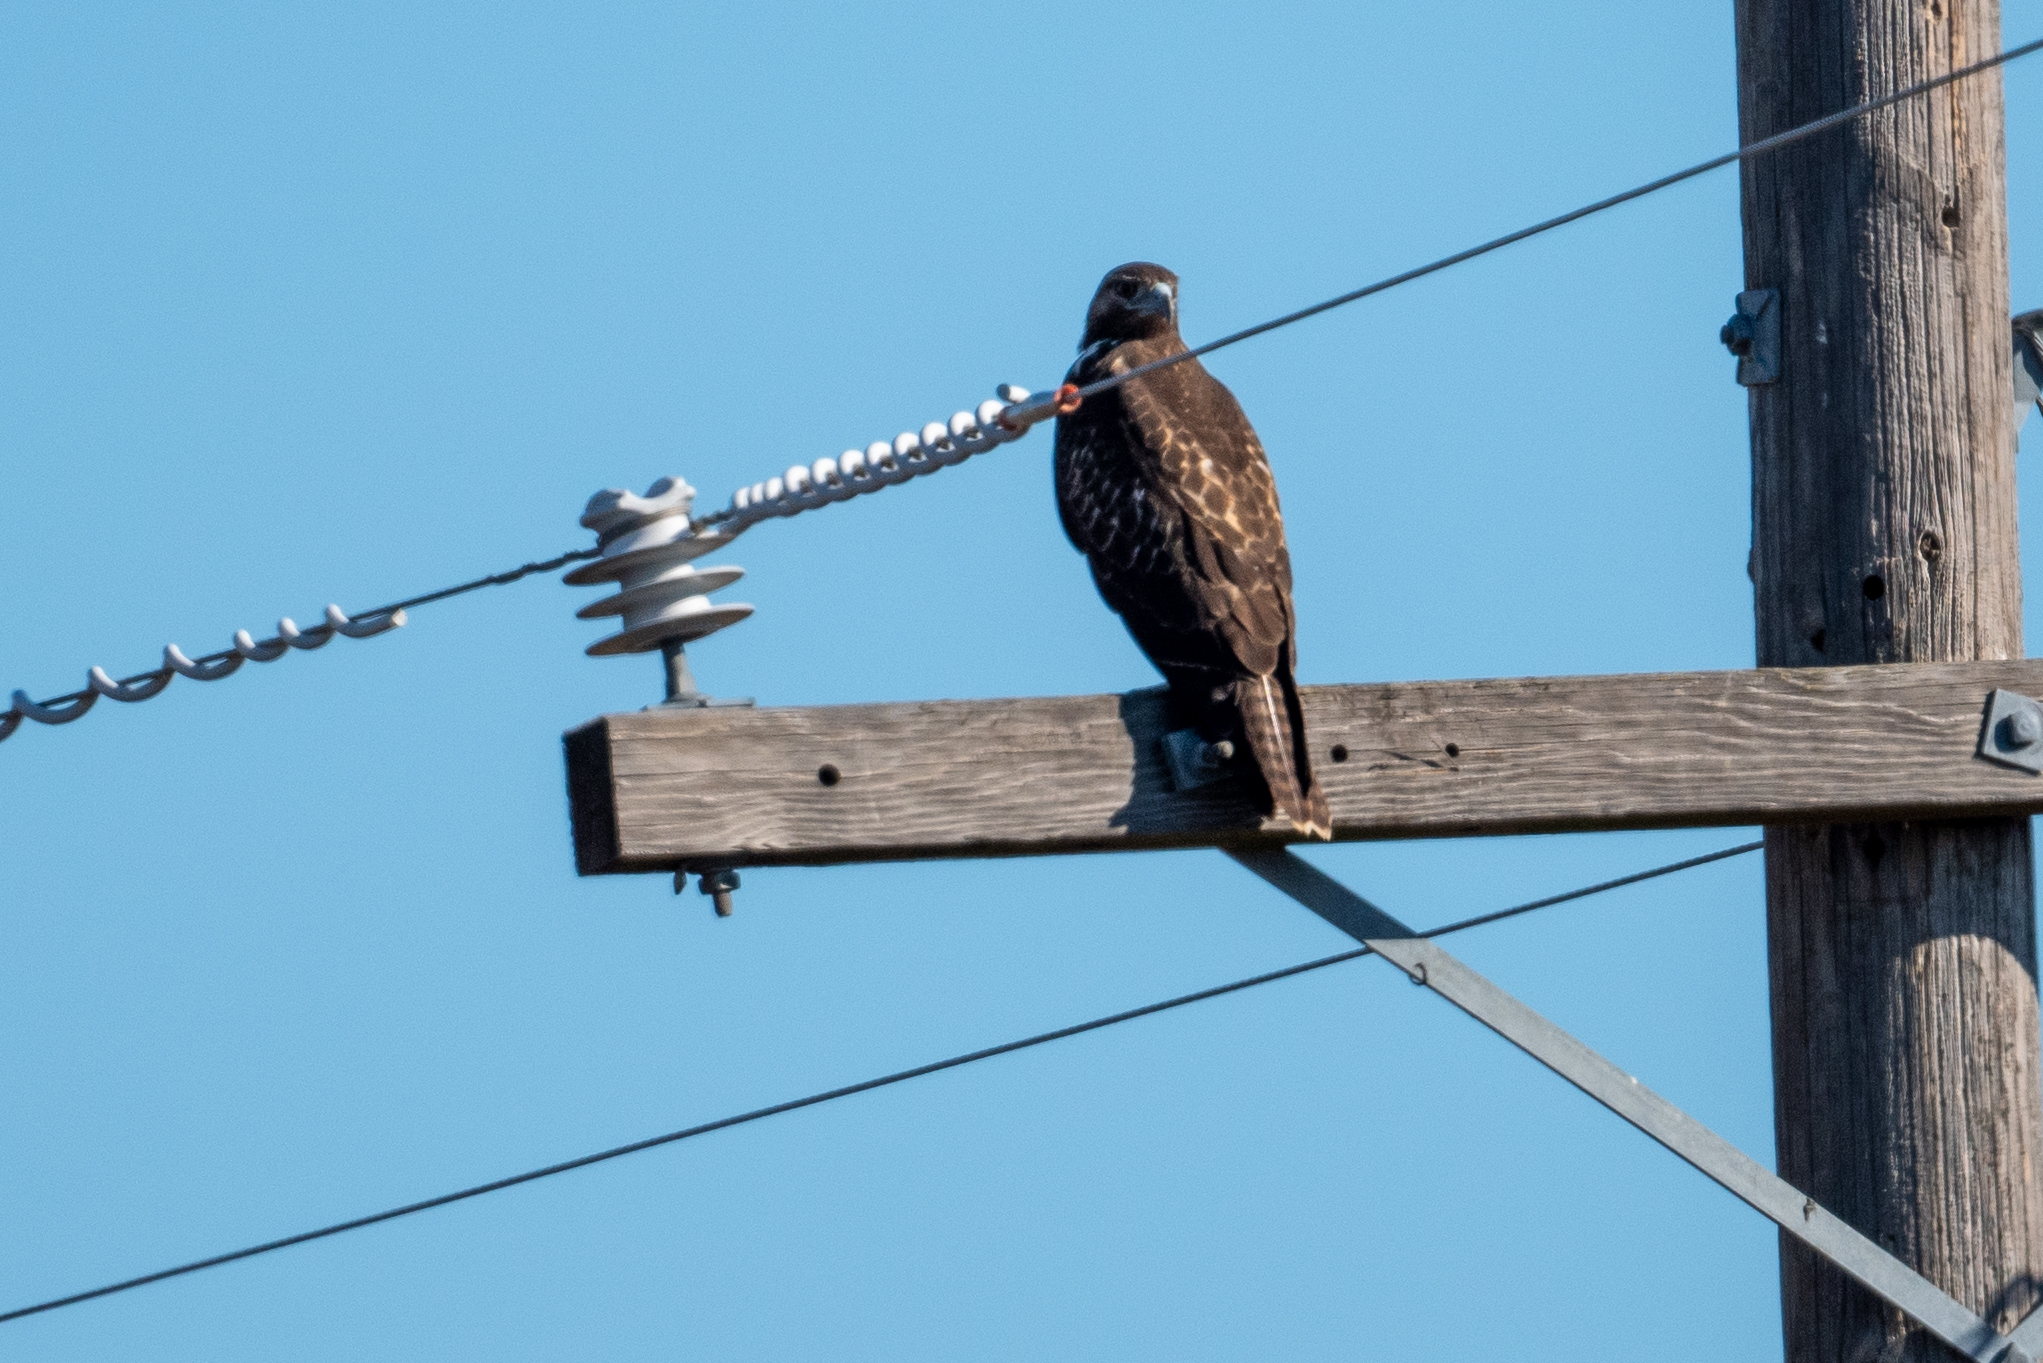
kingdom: Animalia
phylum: Chordata
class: Aves
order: Accipitriformes
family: Accipitridae
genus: Buteo
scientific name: Buteo jamaicensis
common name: Red-tailed hawk
